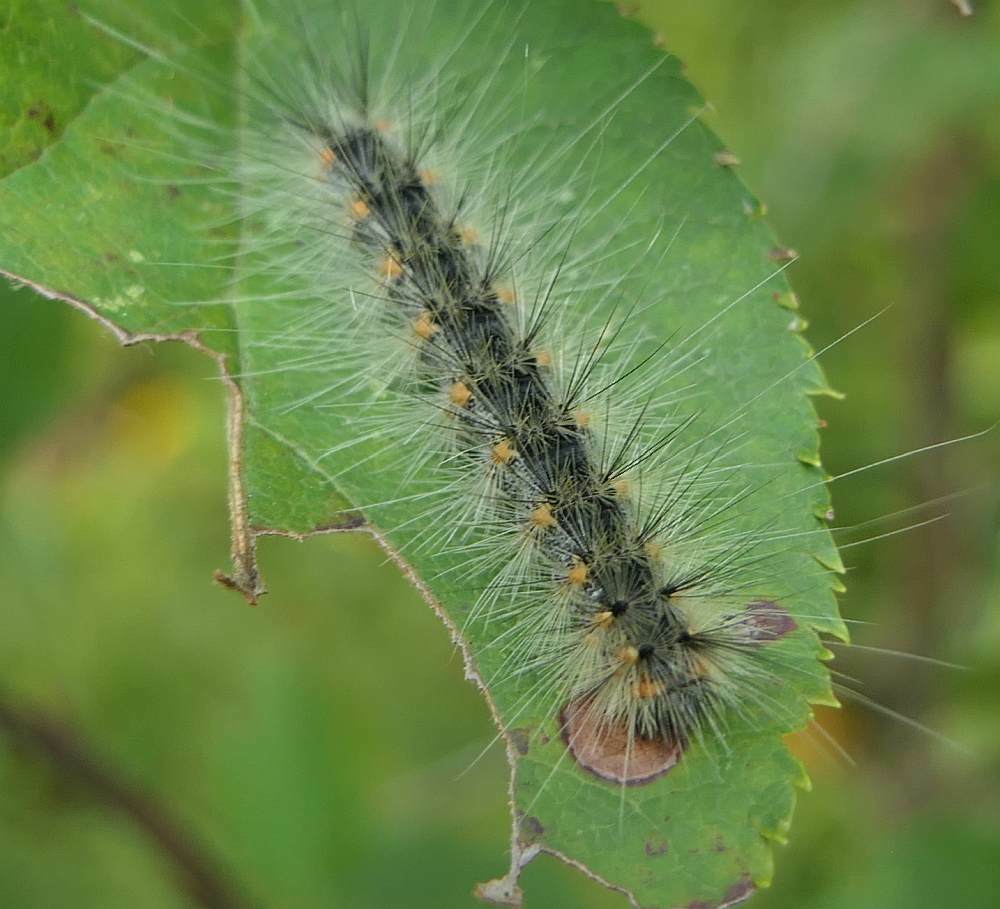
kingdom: Animalia
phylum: Arthropoda
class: Insecta
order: Lepidoptera
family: Erebidae
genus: Hyphantria
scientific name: Hyphantria cunea
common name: American white moth
